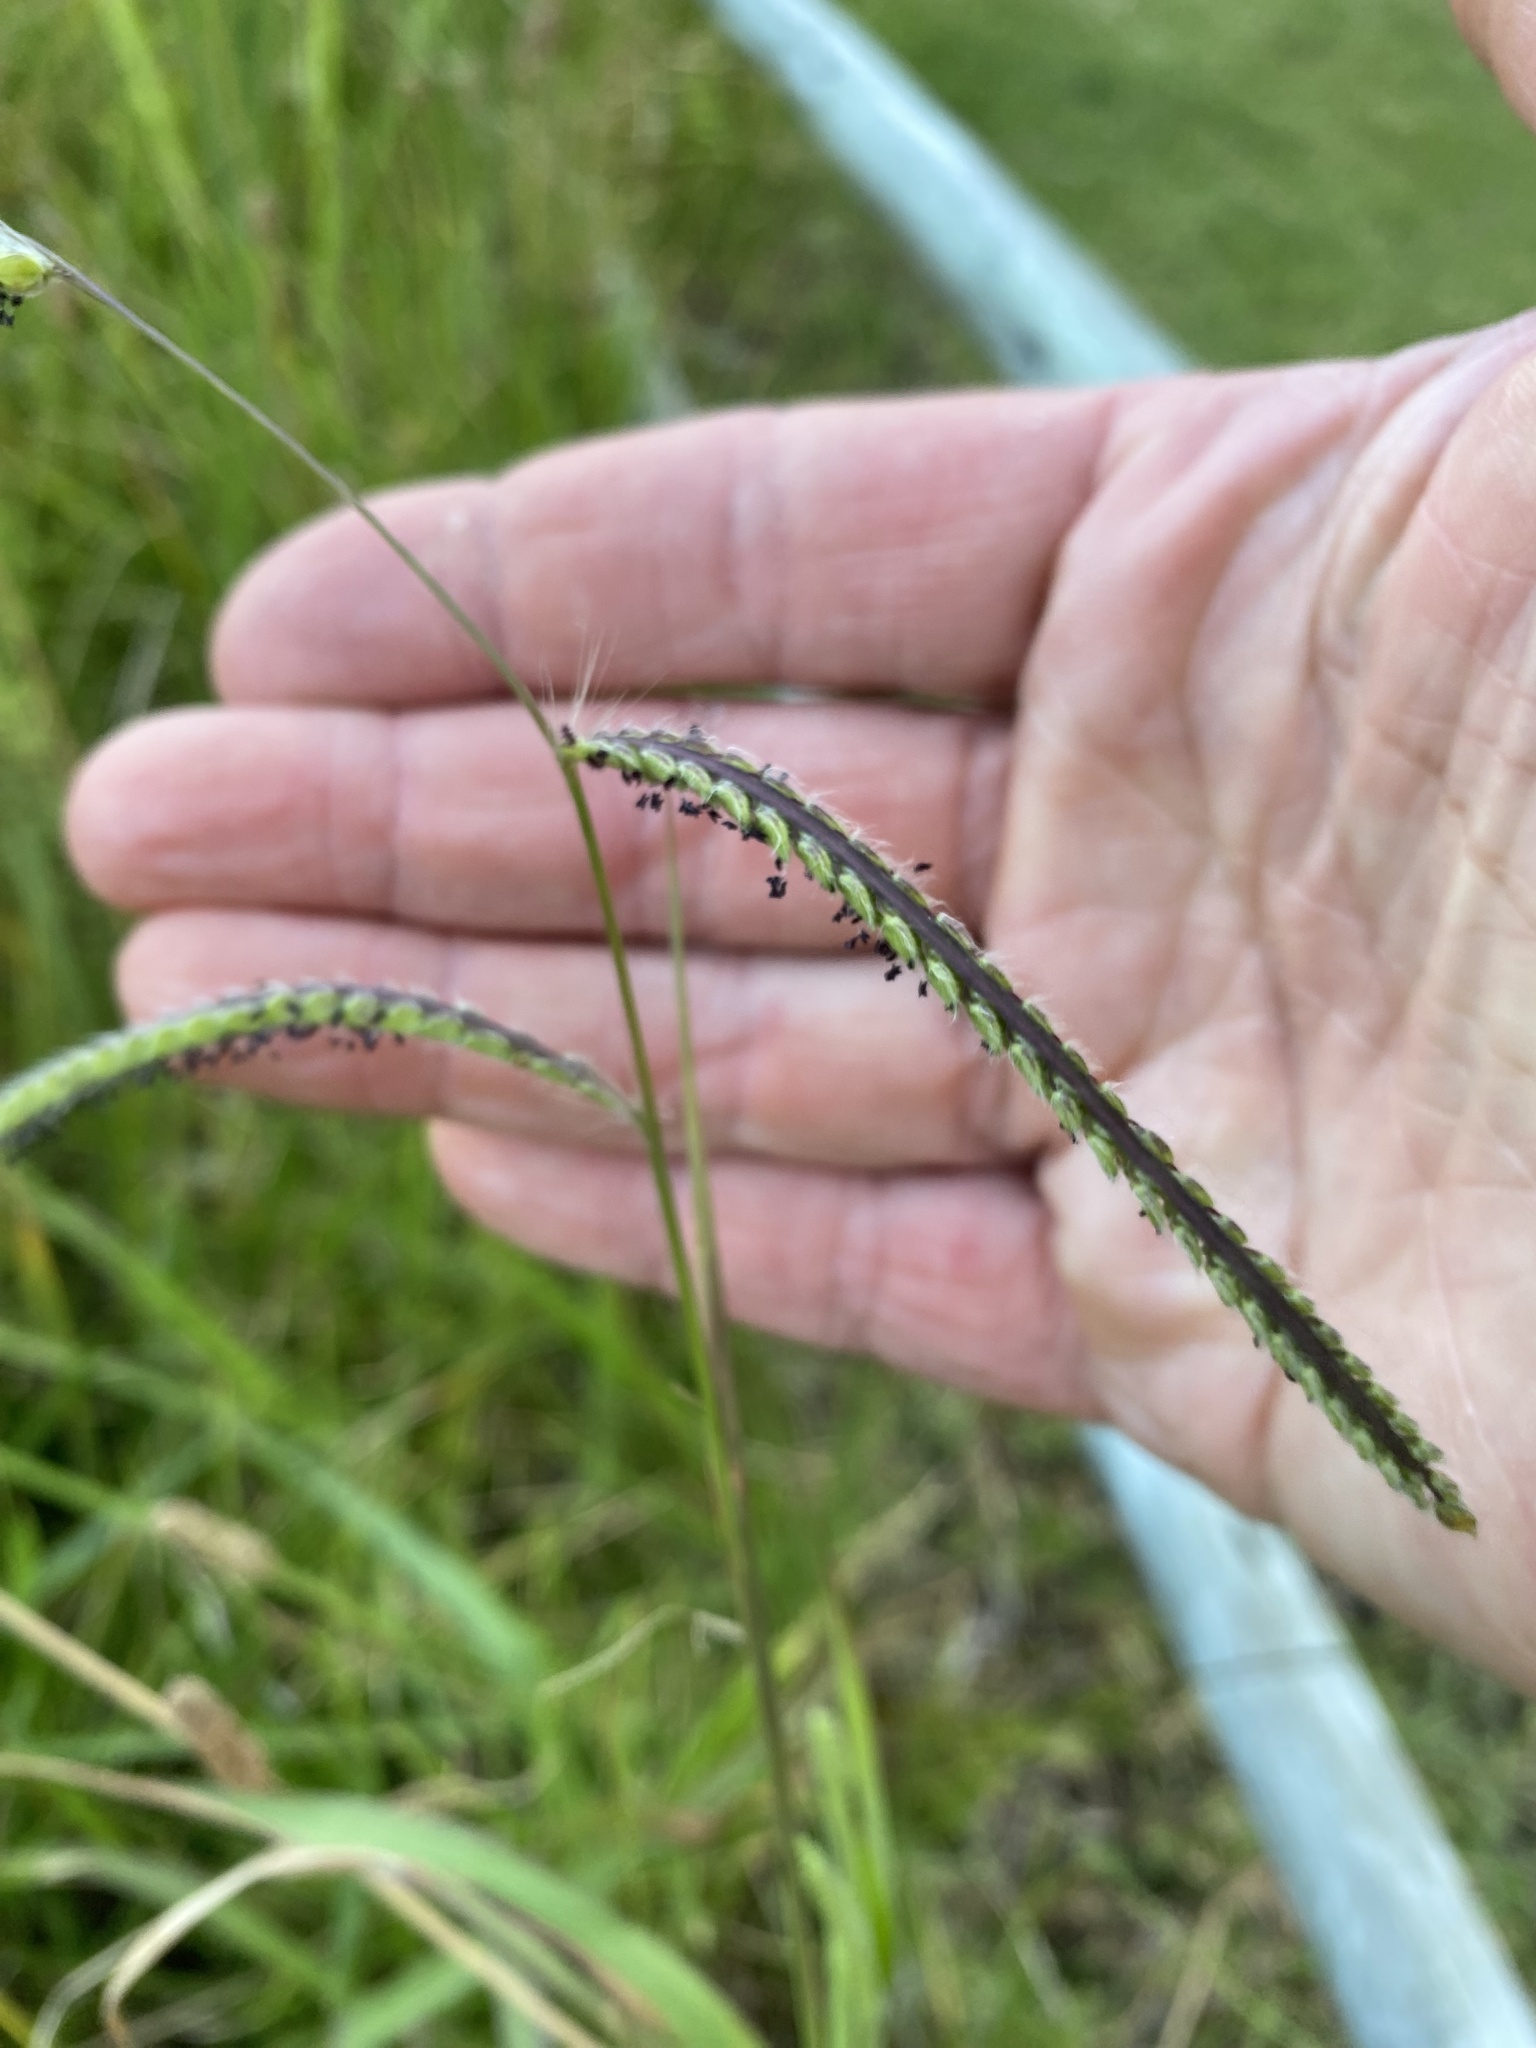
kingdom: Plantae
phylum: Tracheophyta
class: Liliopsida
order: Poales
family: Poaceae
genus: Paspalum
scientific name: Paspalum dilatatum
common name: Dallisgrass
